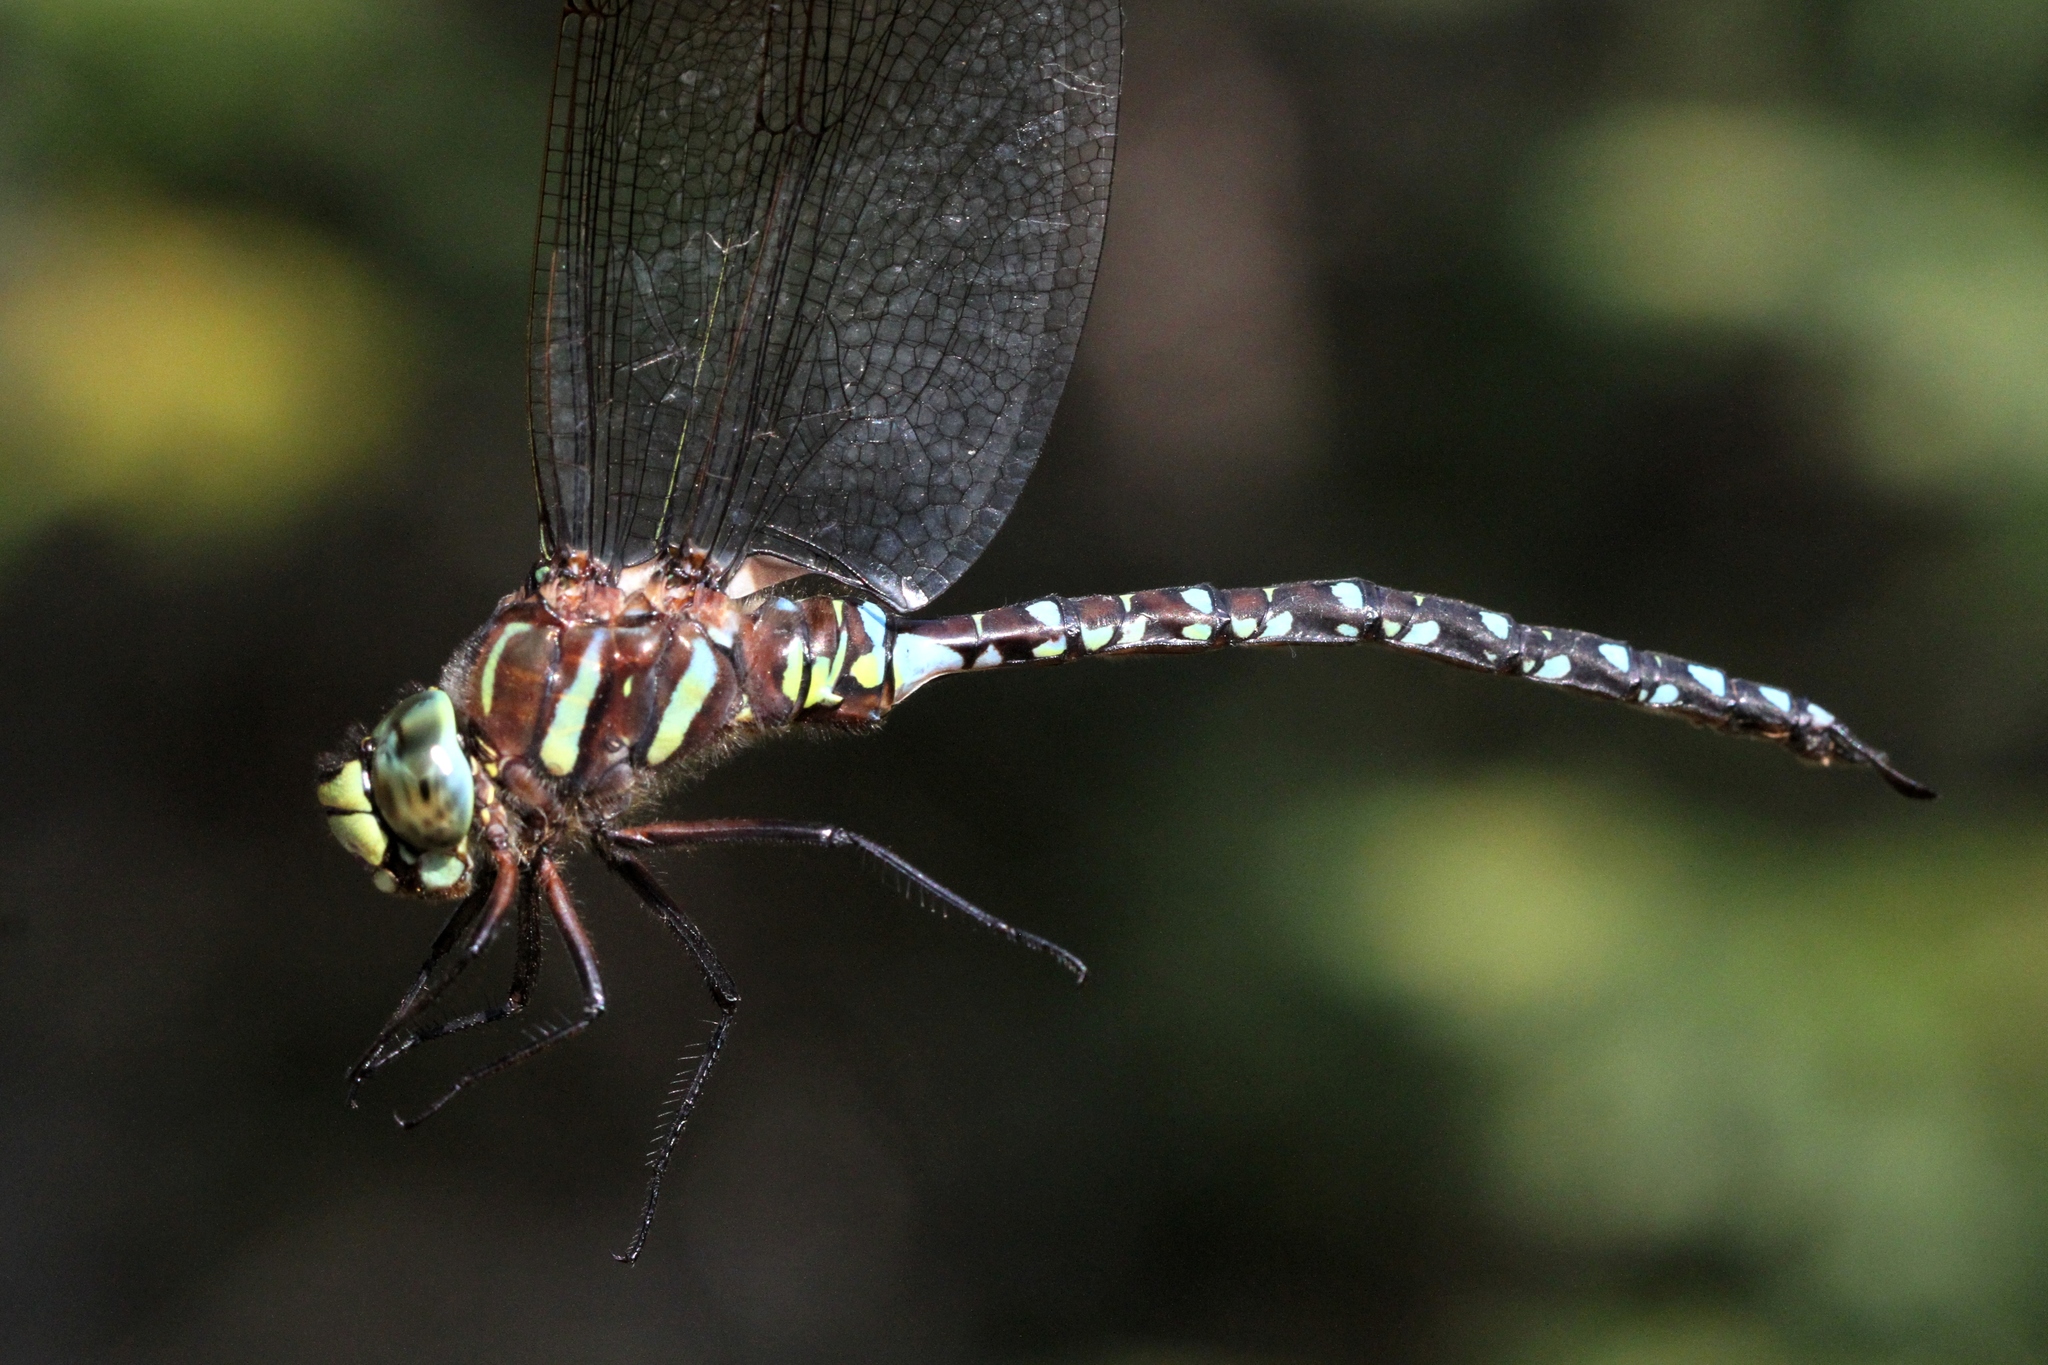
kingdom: Animalia
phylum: Arthropoda
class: Insecta
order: Odonata
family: Aeshnidae
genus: Aeshna
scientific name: Aeshna juncea
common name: Moorland hawker
